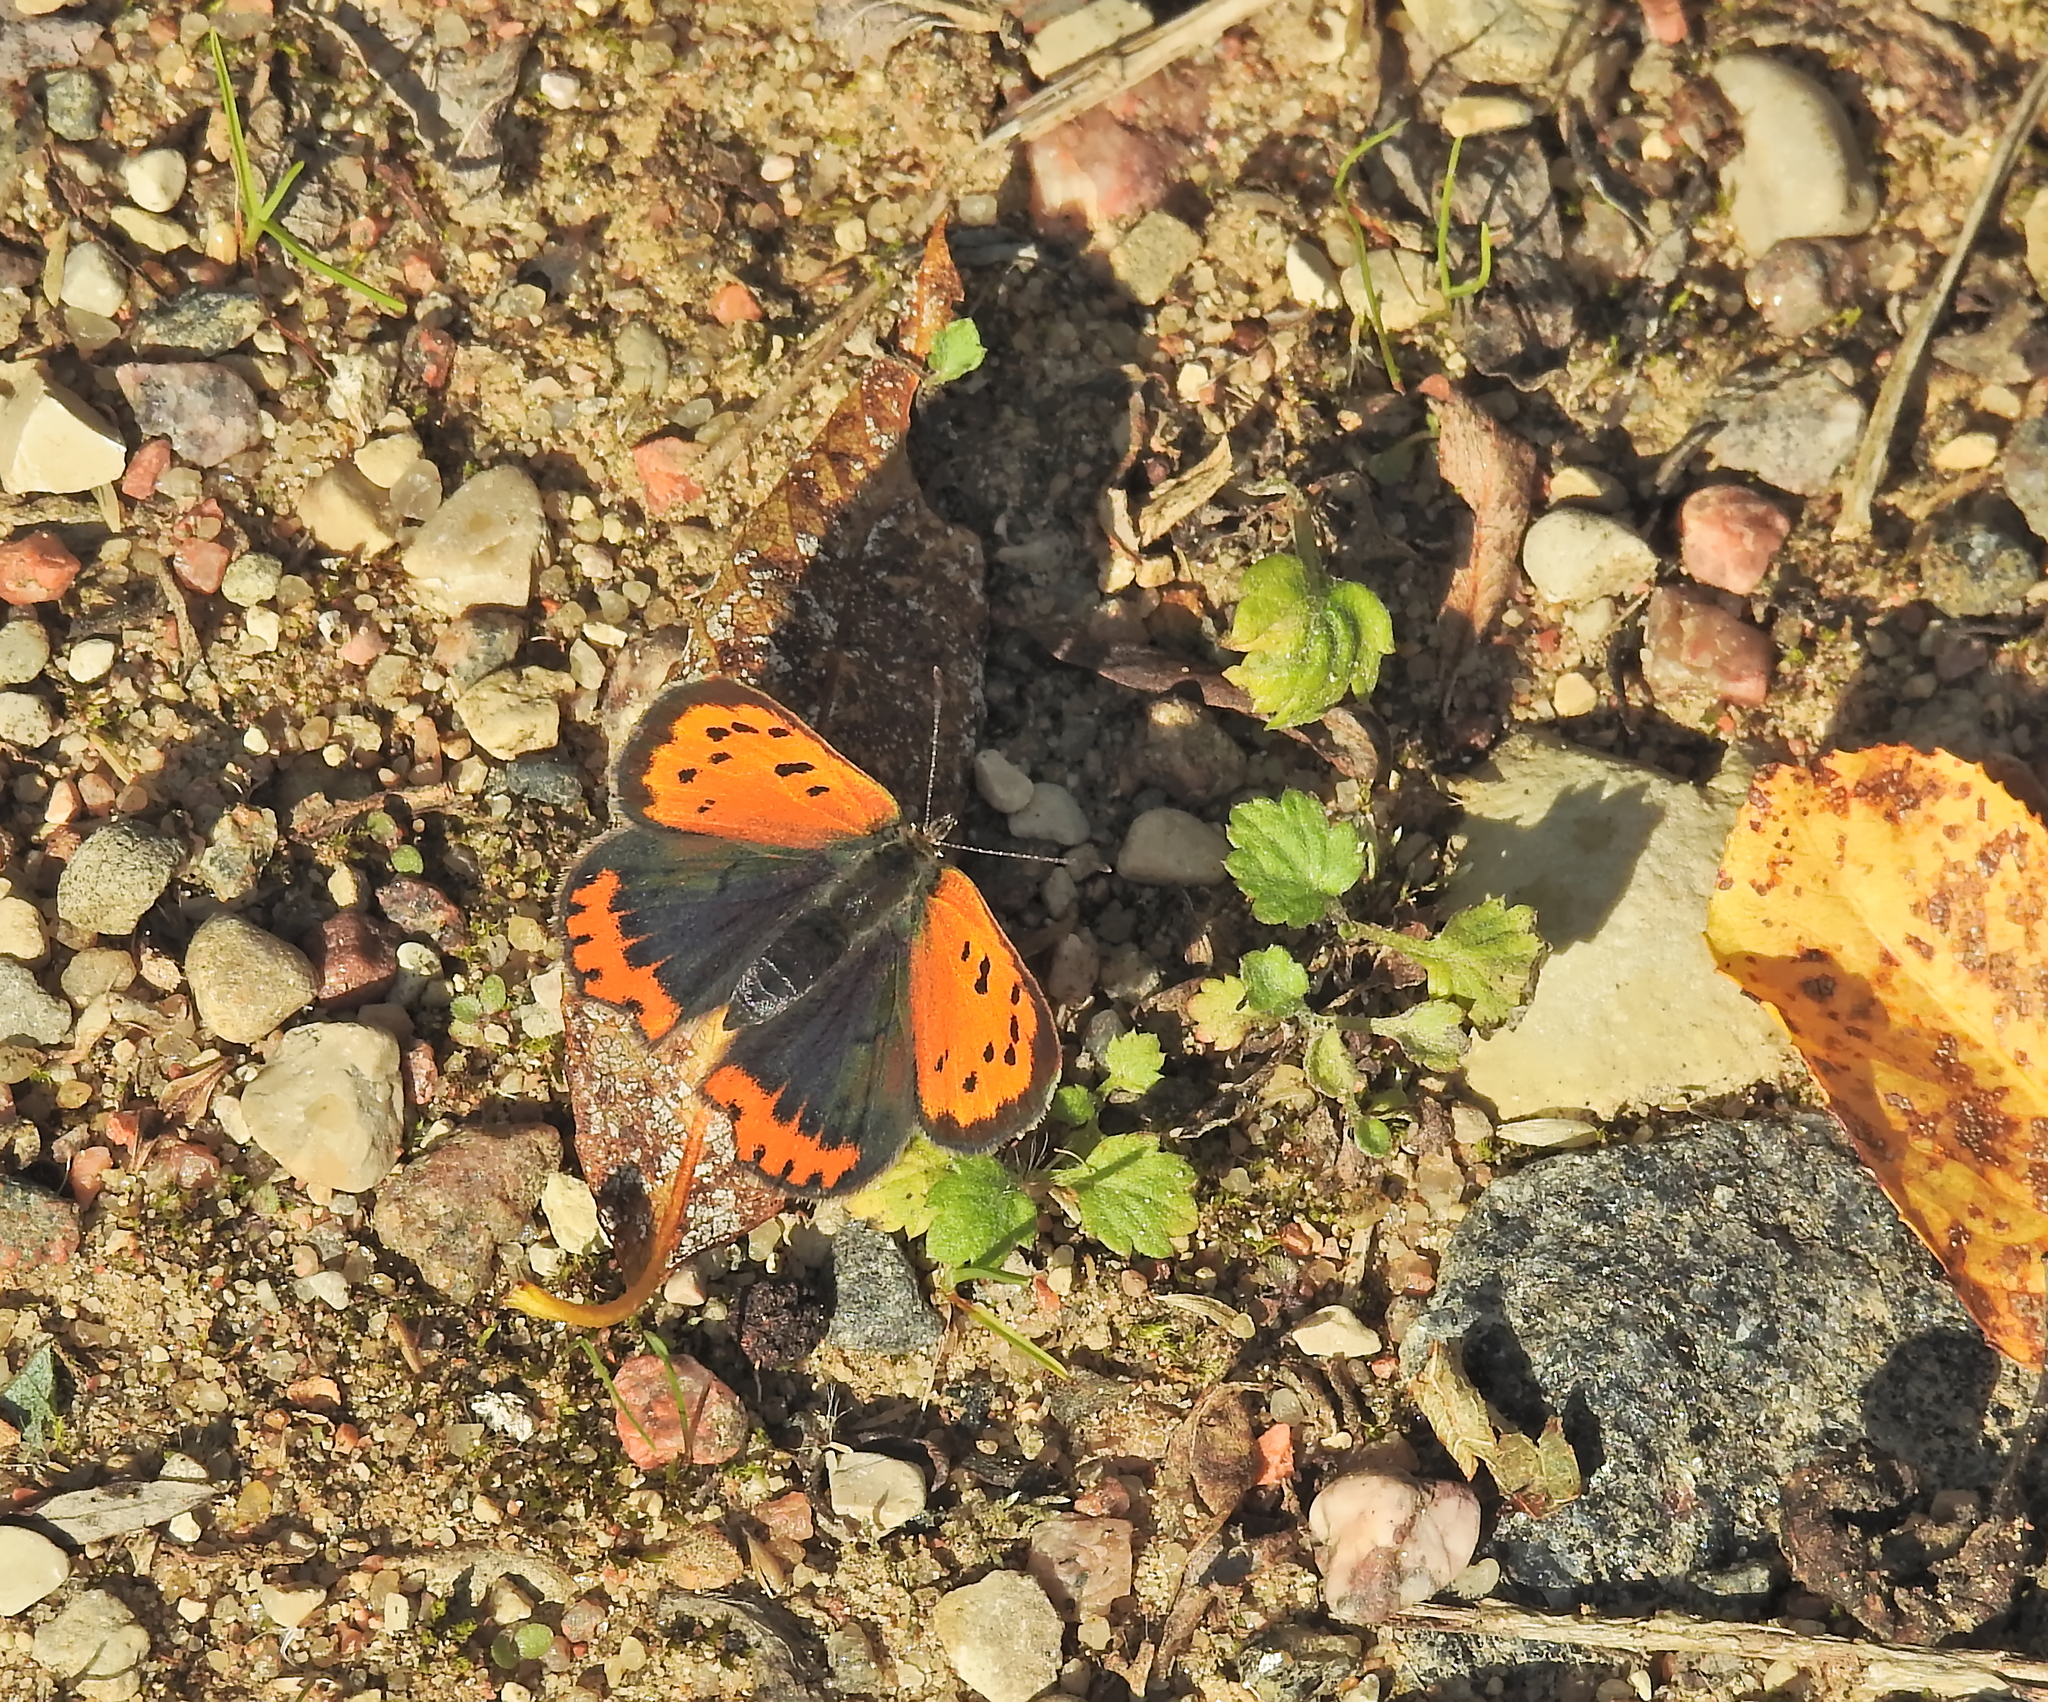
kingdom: Animalia
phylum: Arthropoda
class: Insecta
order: Lepidoptera
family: Lycaenidae
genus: Lycaena
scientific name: Lycaena phlaeas
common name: Small copper
